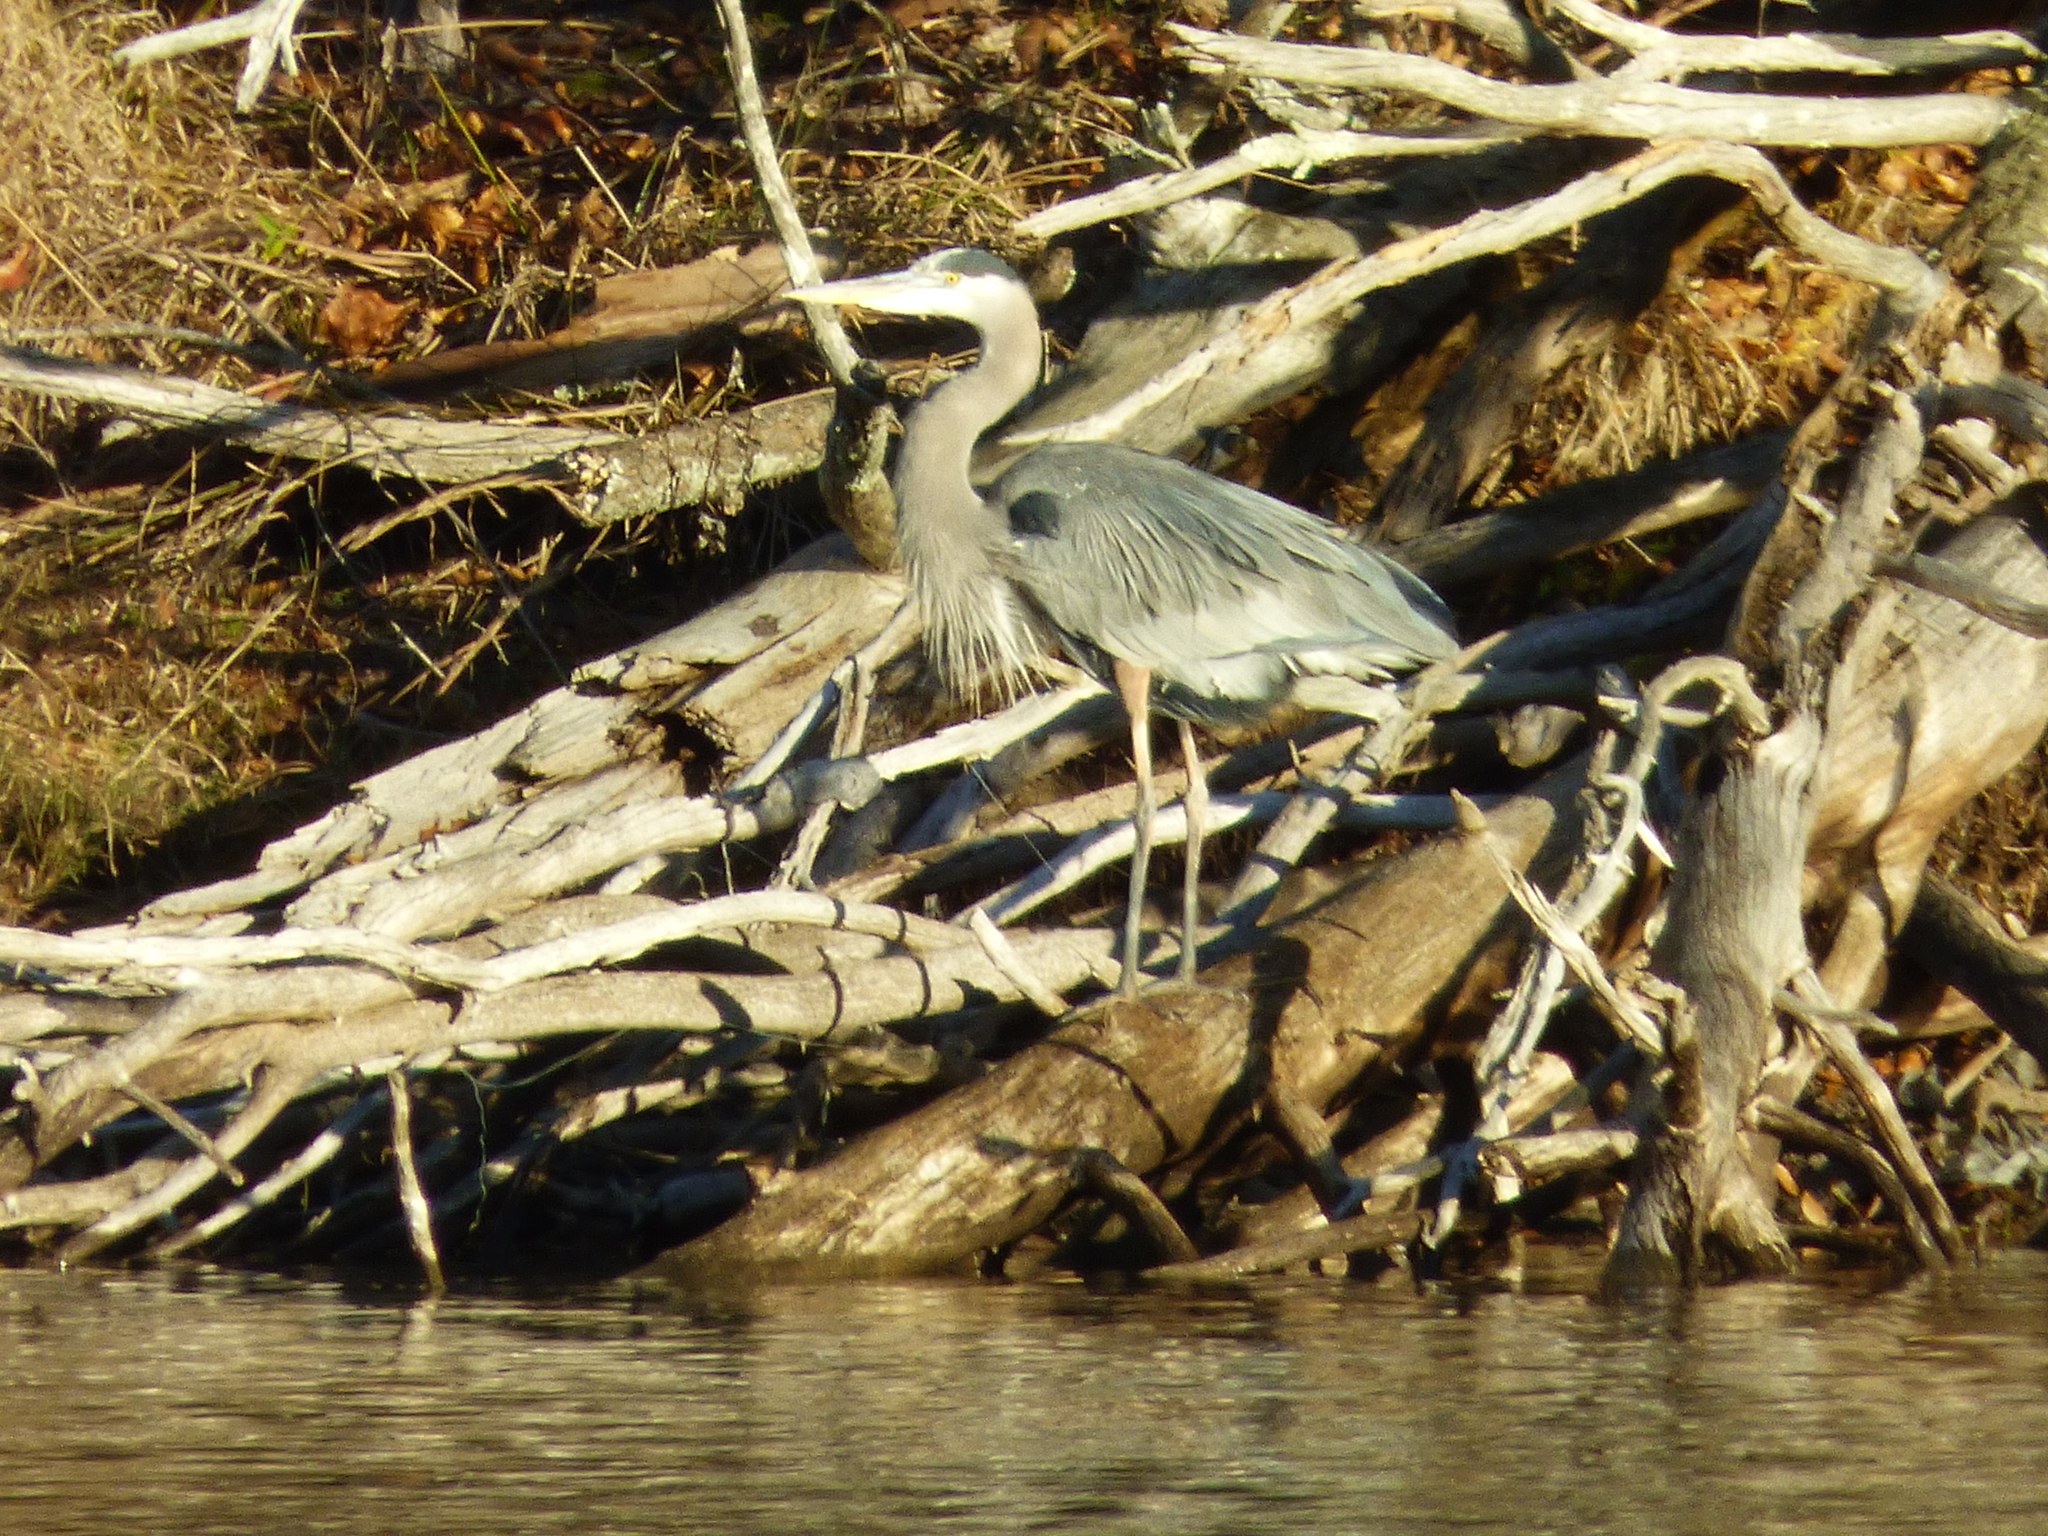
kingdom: Animalia
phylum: Chordata
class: Aves
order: Pelecaniformes
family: Ardeidae
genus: Ardea
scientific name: Ardea herodias
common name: Great blue heron
